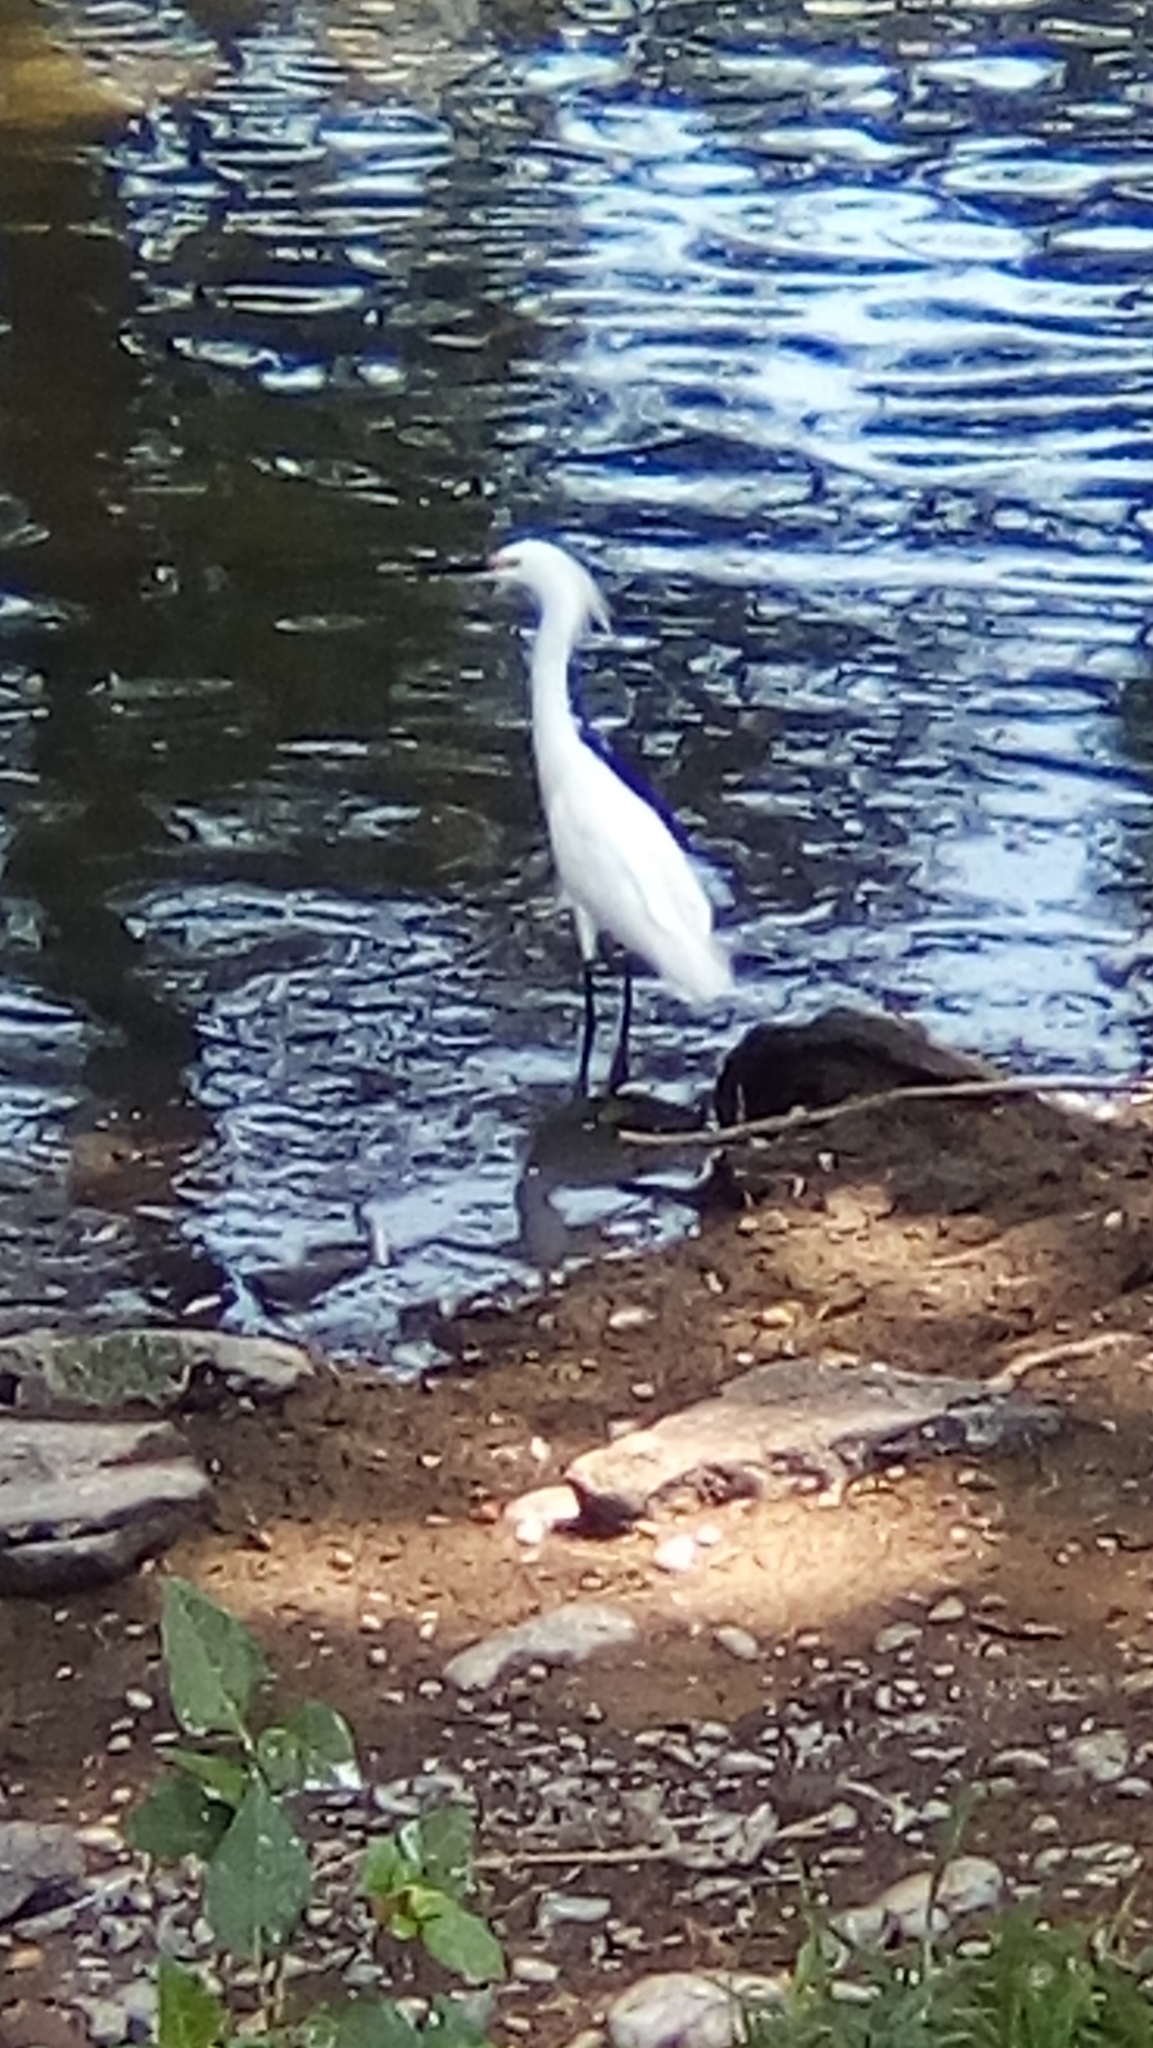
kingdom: Animalia
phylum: Chordata
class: Aves
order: Pelecaniformes
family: Ardeidae
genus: Egretta
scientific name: Egretta thula
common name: Snowy egret
